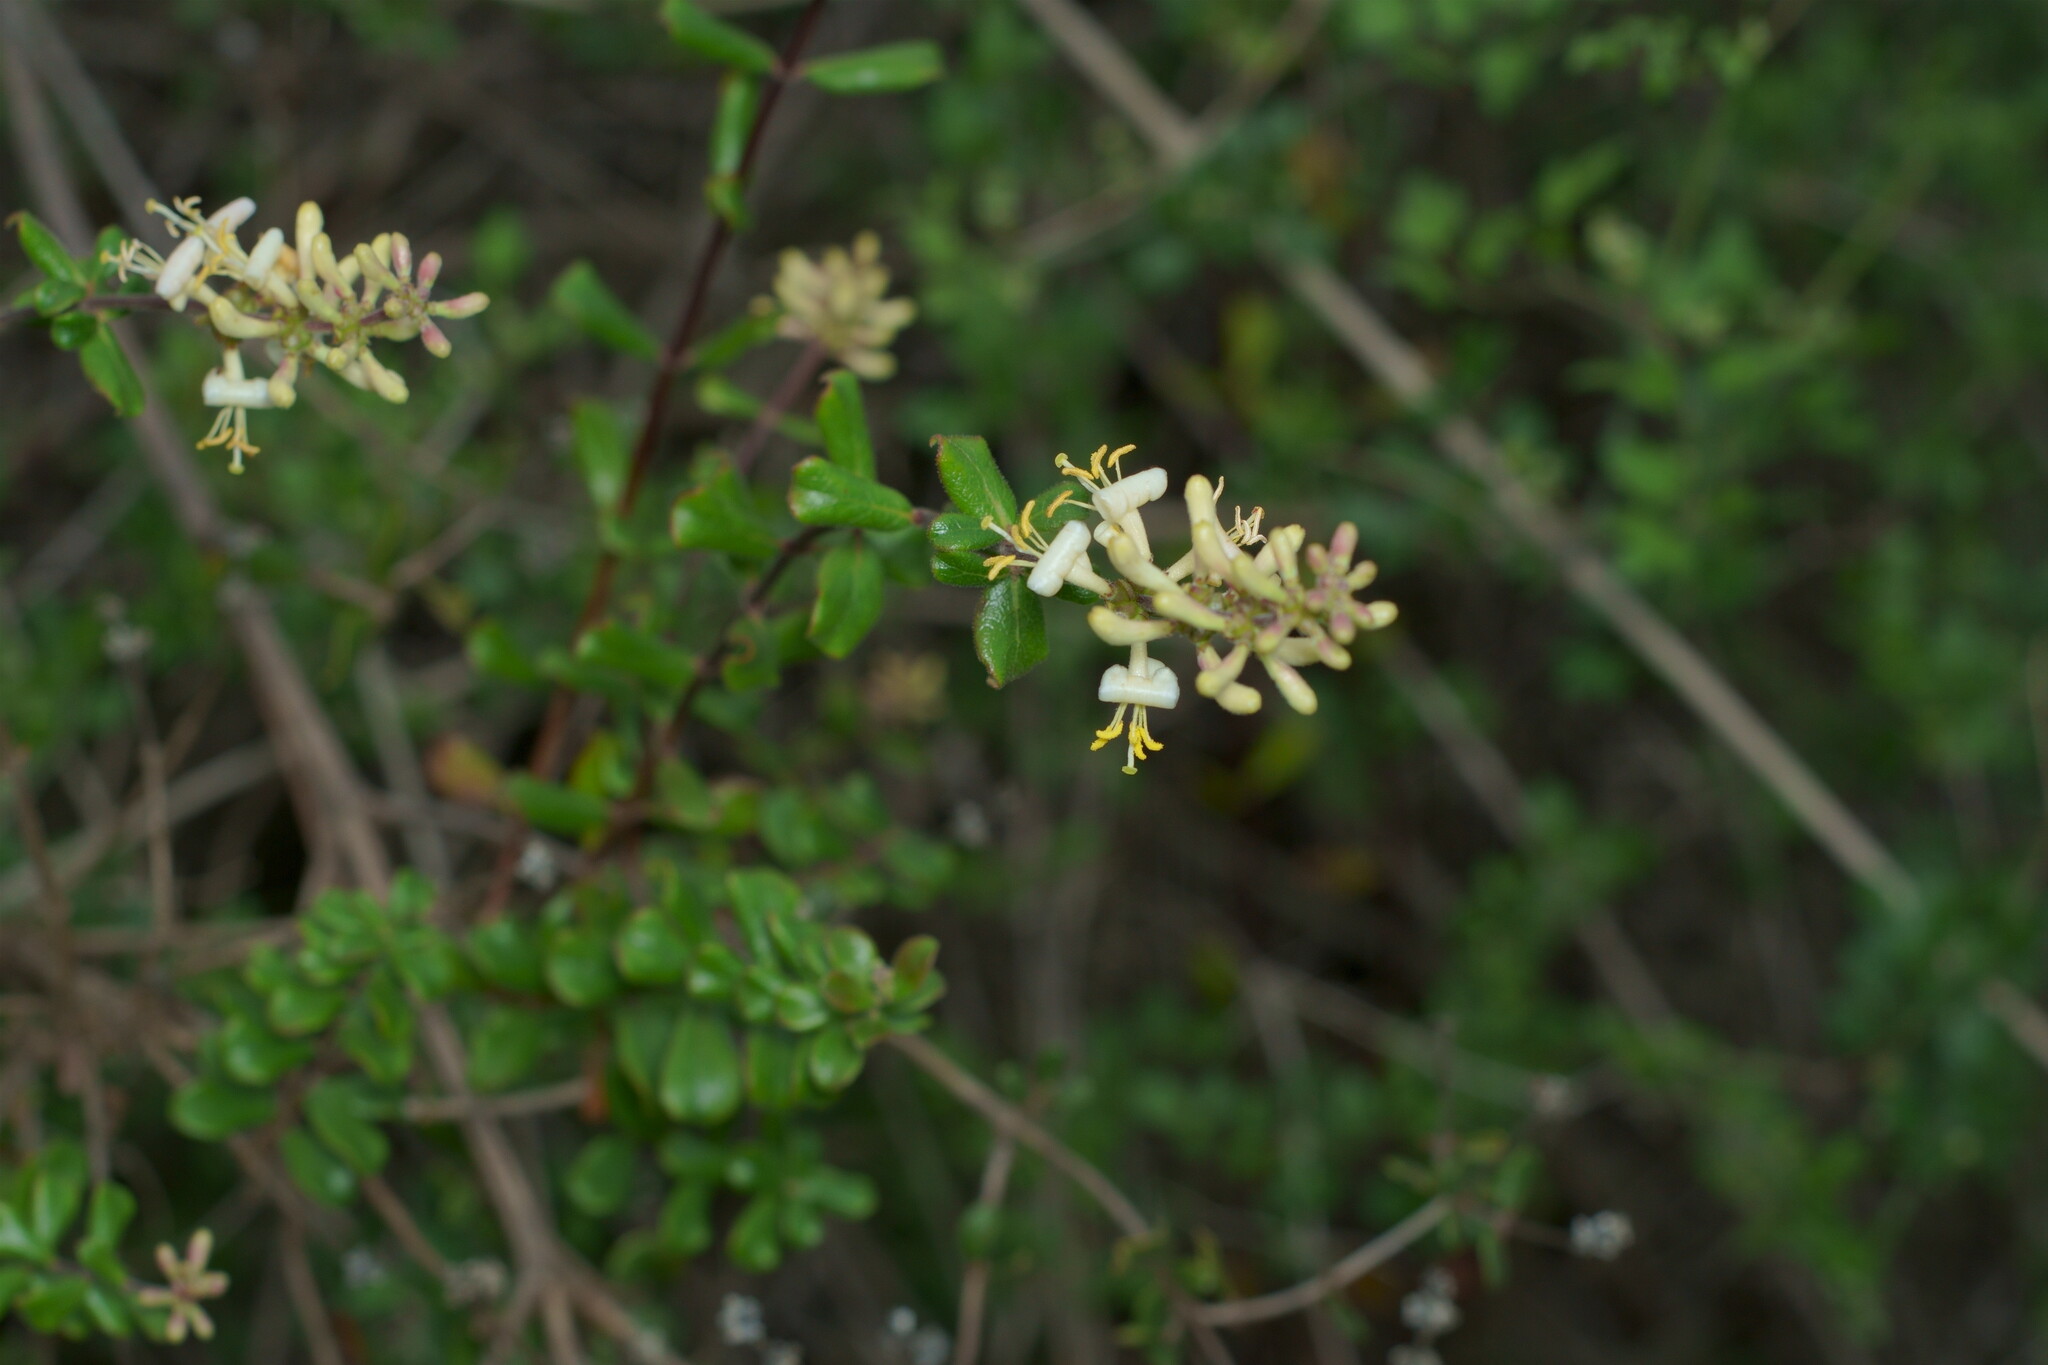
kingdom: Plantae
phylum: Tracheophyta
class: Magnoliopsida
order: Dipsacales
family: Caprifoliaceae
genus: Lonicera
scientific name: Lonicera subspicata
